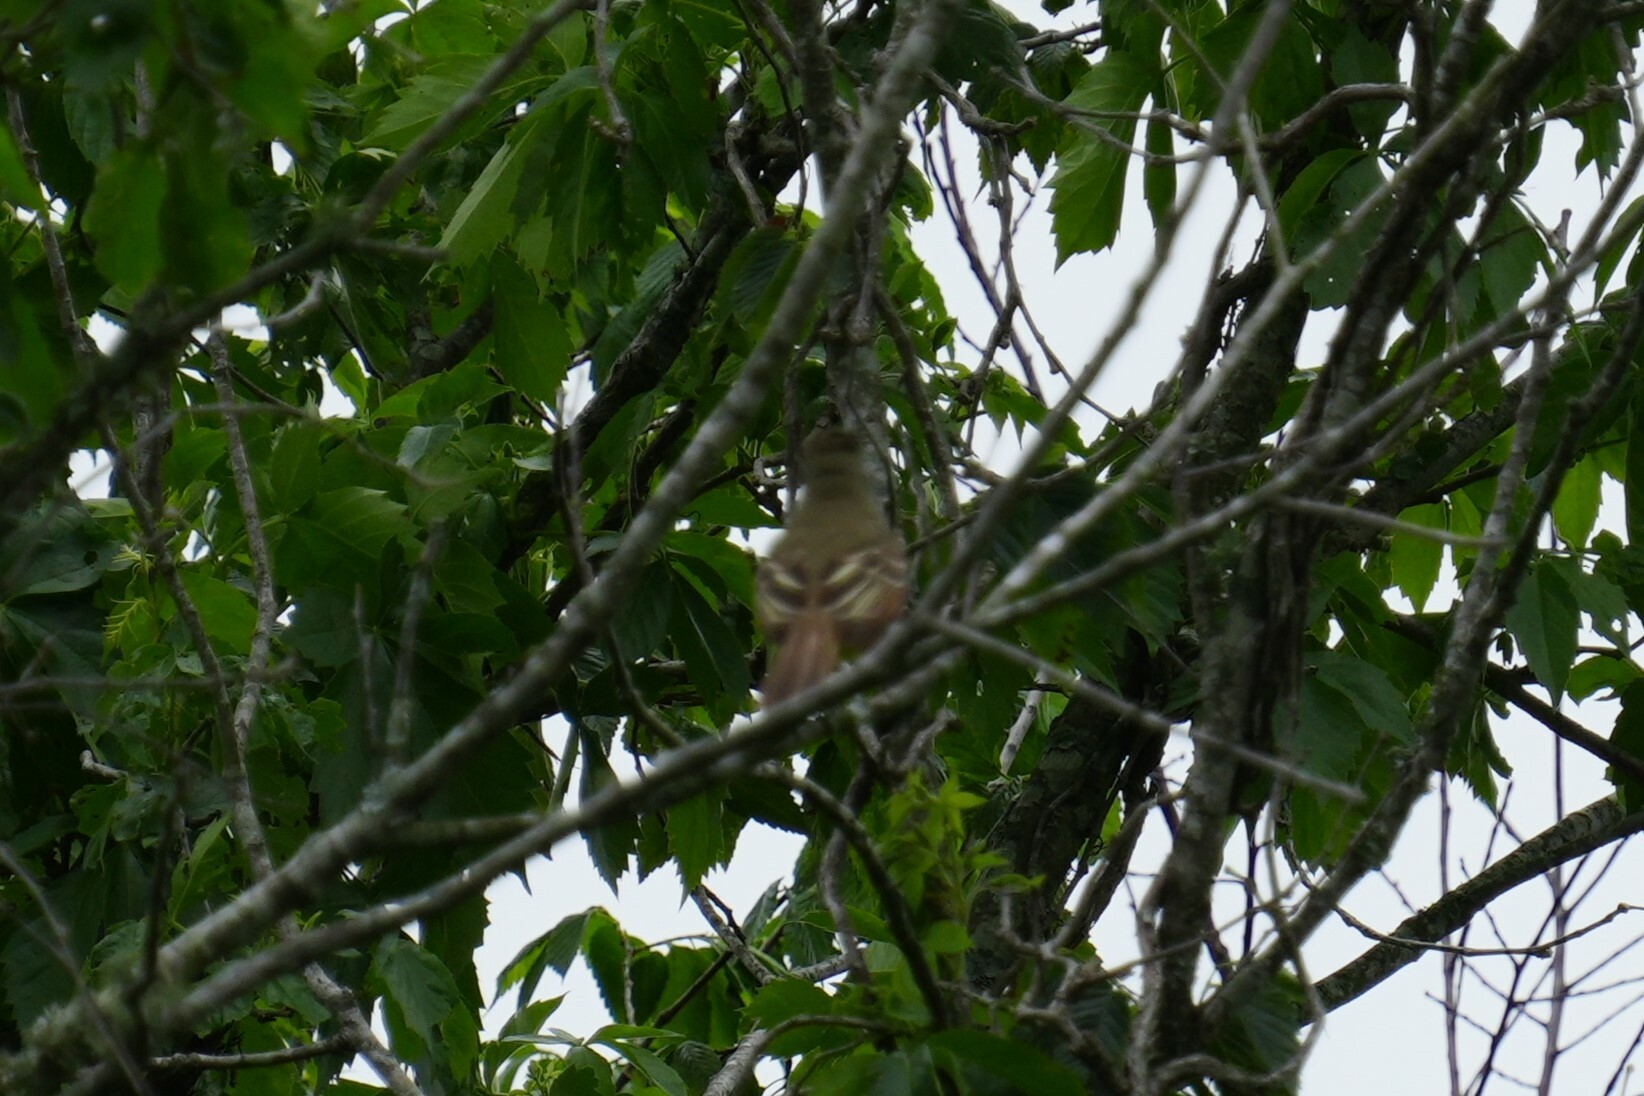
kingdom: Animalia
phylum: Chordata
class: Aves
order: Passeriformes
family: Tyrannidae
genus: Myiarchus
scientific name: Myiarchus crinitus
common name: Great crested flycatcher
